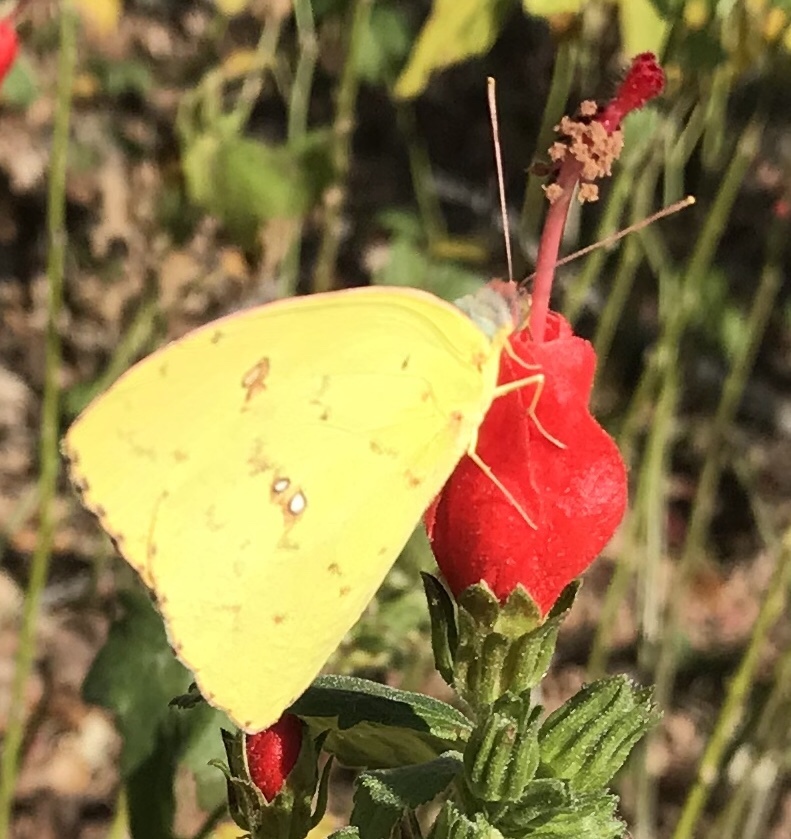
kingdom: Animalia
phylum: Arthropoda
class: Insecta
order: Lepidoptera
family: Pieridae
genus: Phoebis
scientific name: Phoebis sennae
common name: Cloudless sulphur
